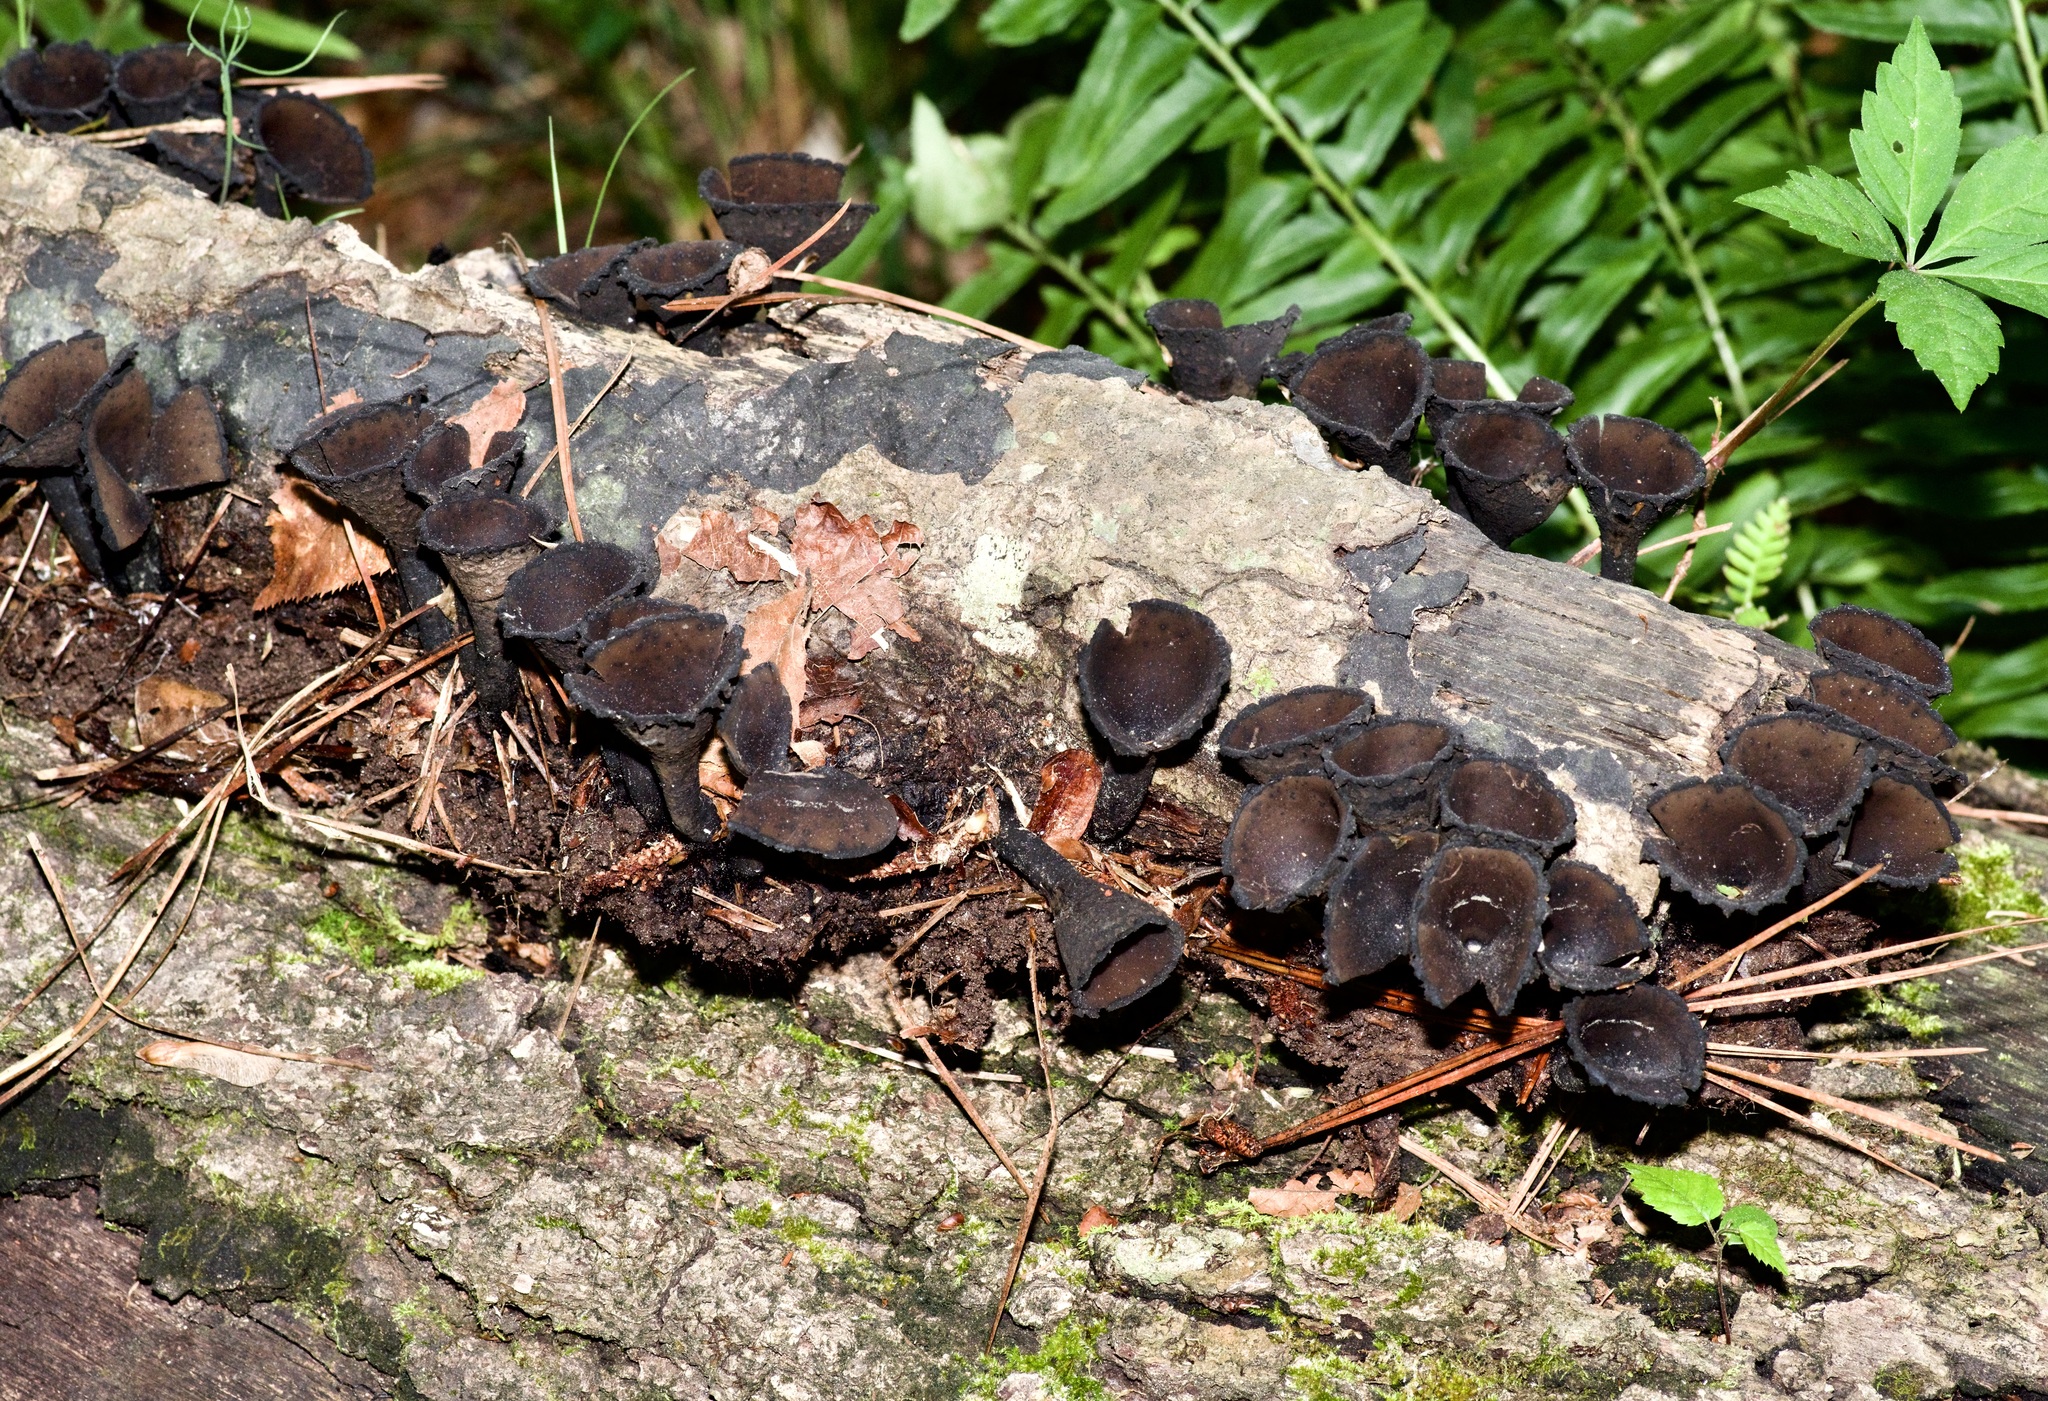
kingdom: Fungi
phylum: Ascomycota
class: Pezizomycetes
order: Pezizales
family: Sarcosomataceae
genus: Urnula
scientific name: Urnula craterium
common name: Devil's urn
